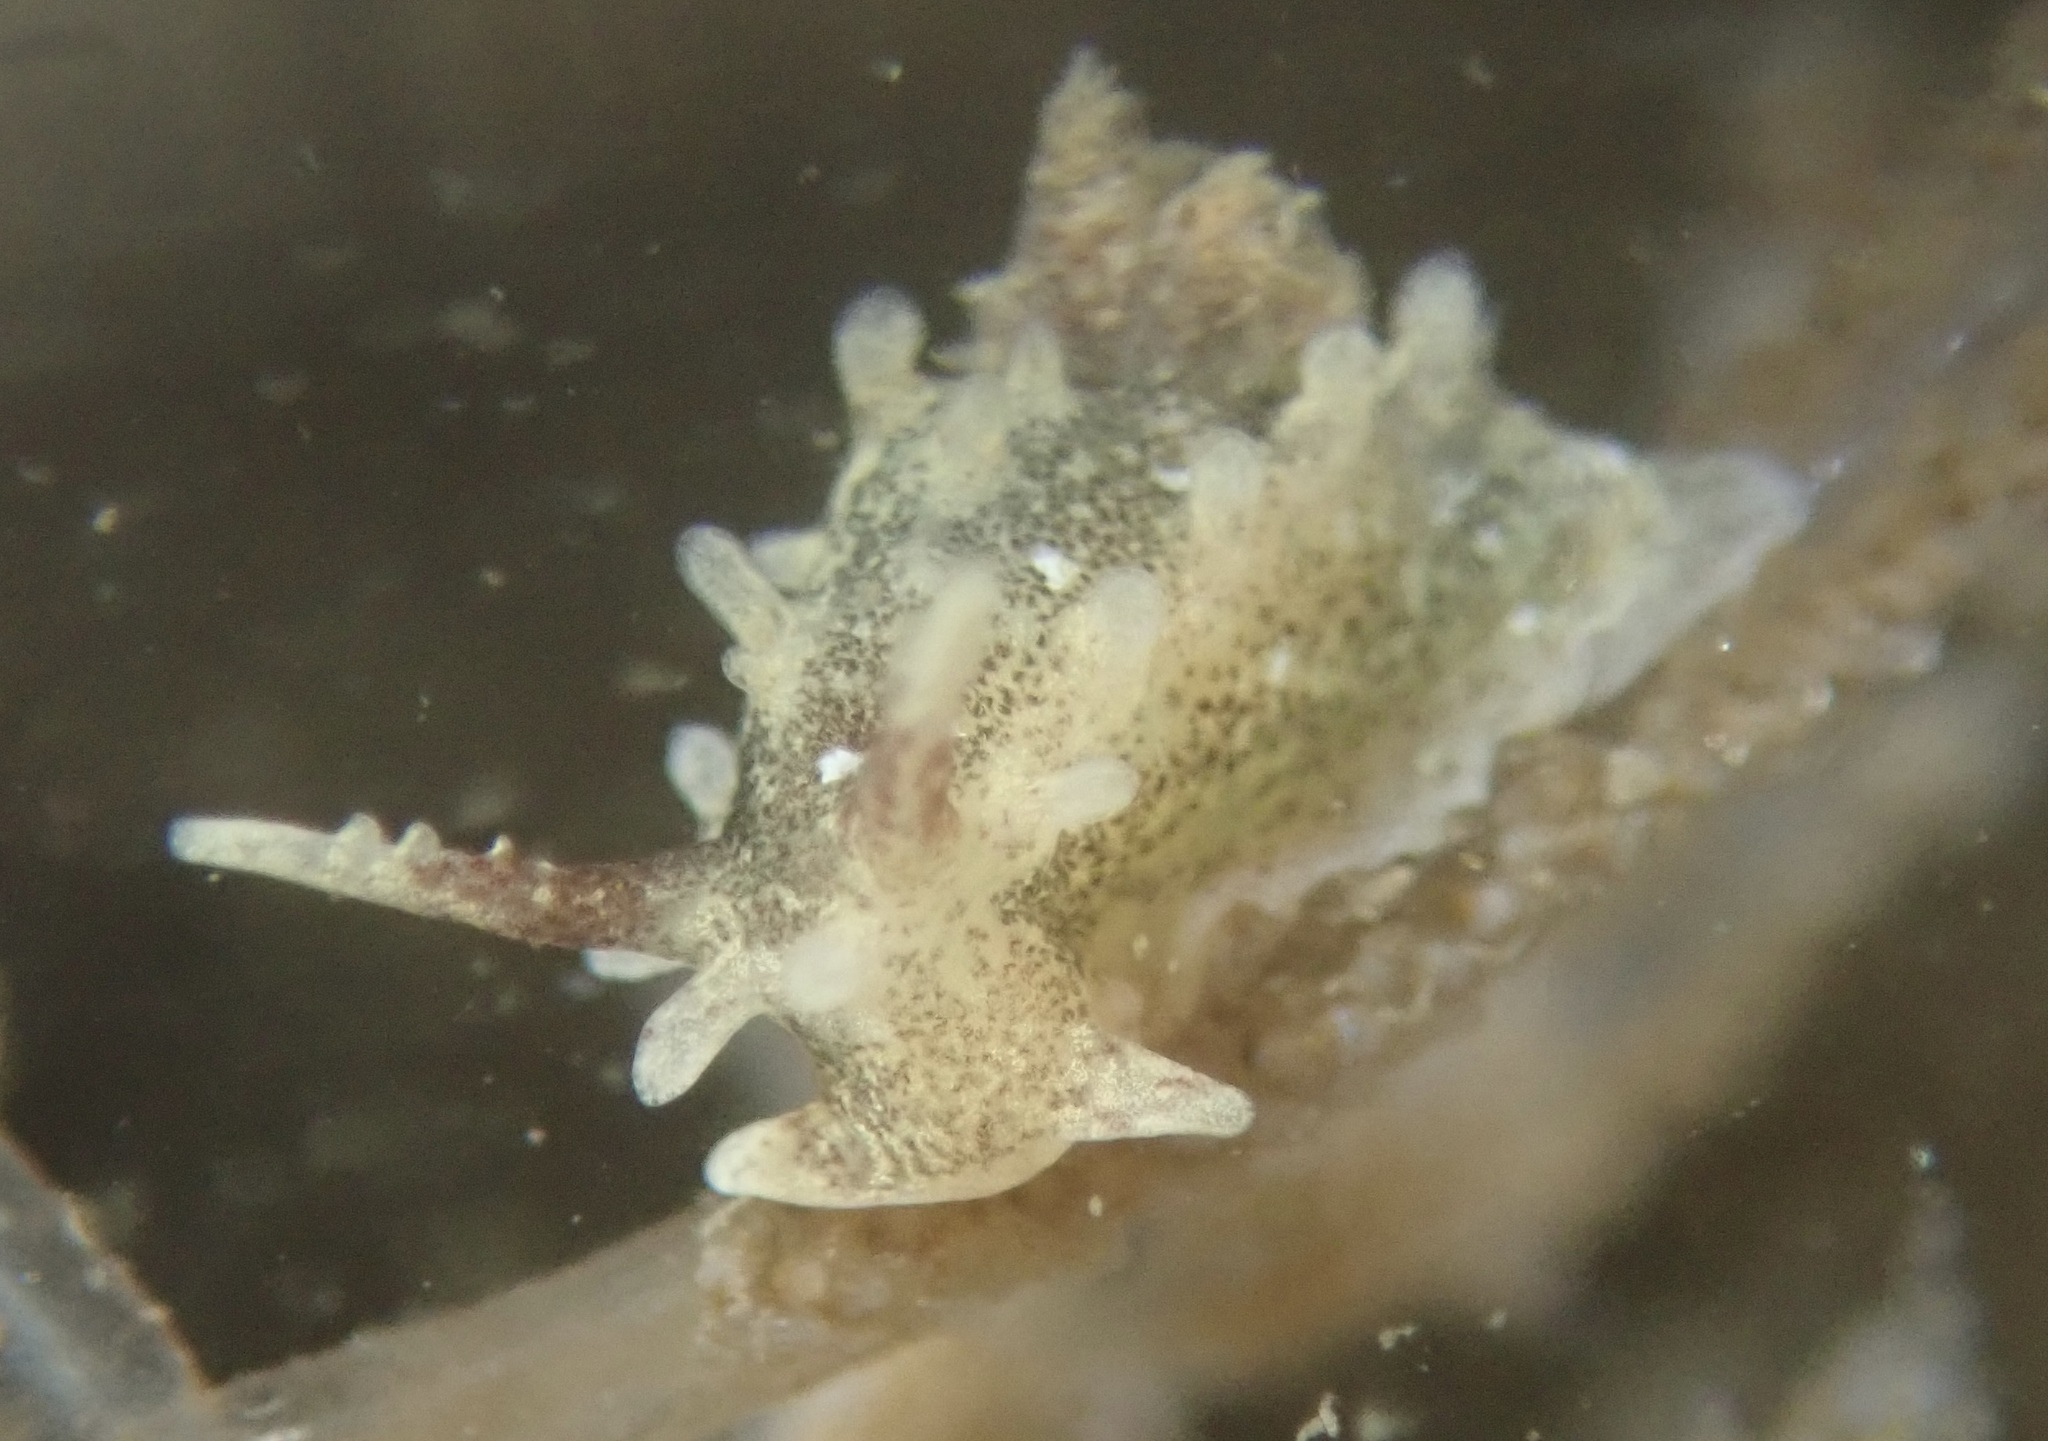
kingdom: Animalia
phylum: Mollusca
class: Gastropoda
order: Nudibranchia
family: Goniodorididae
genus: Okenia
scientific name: Okenia
